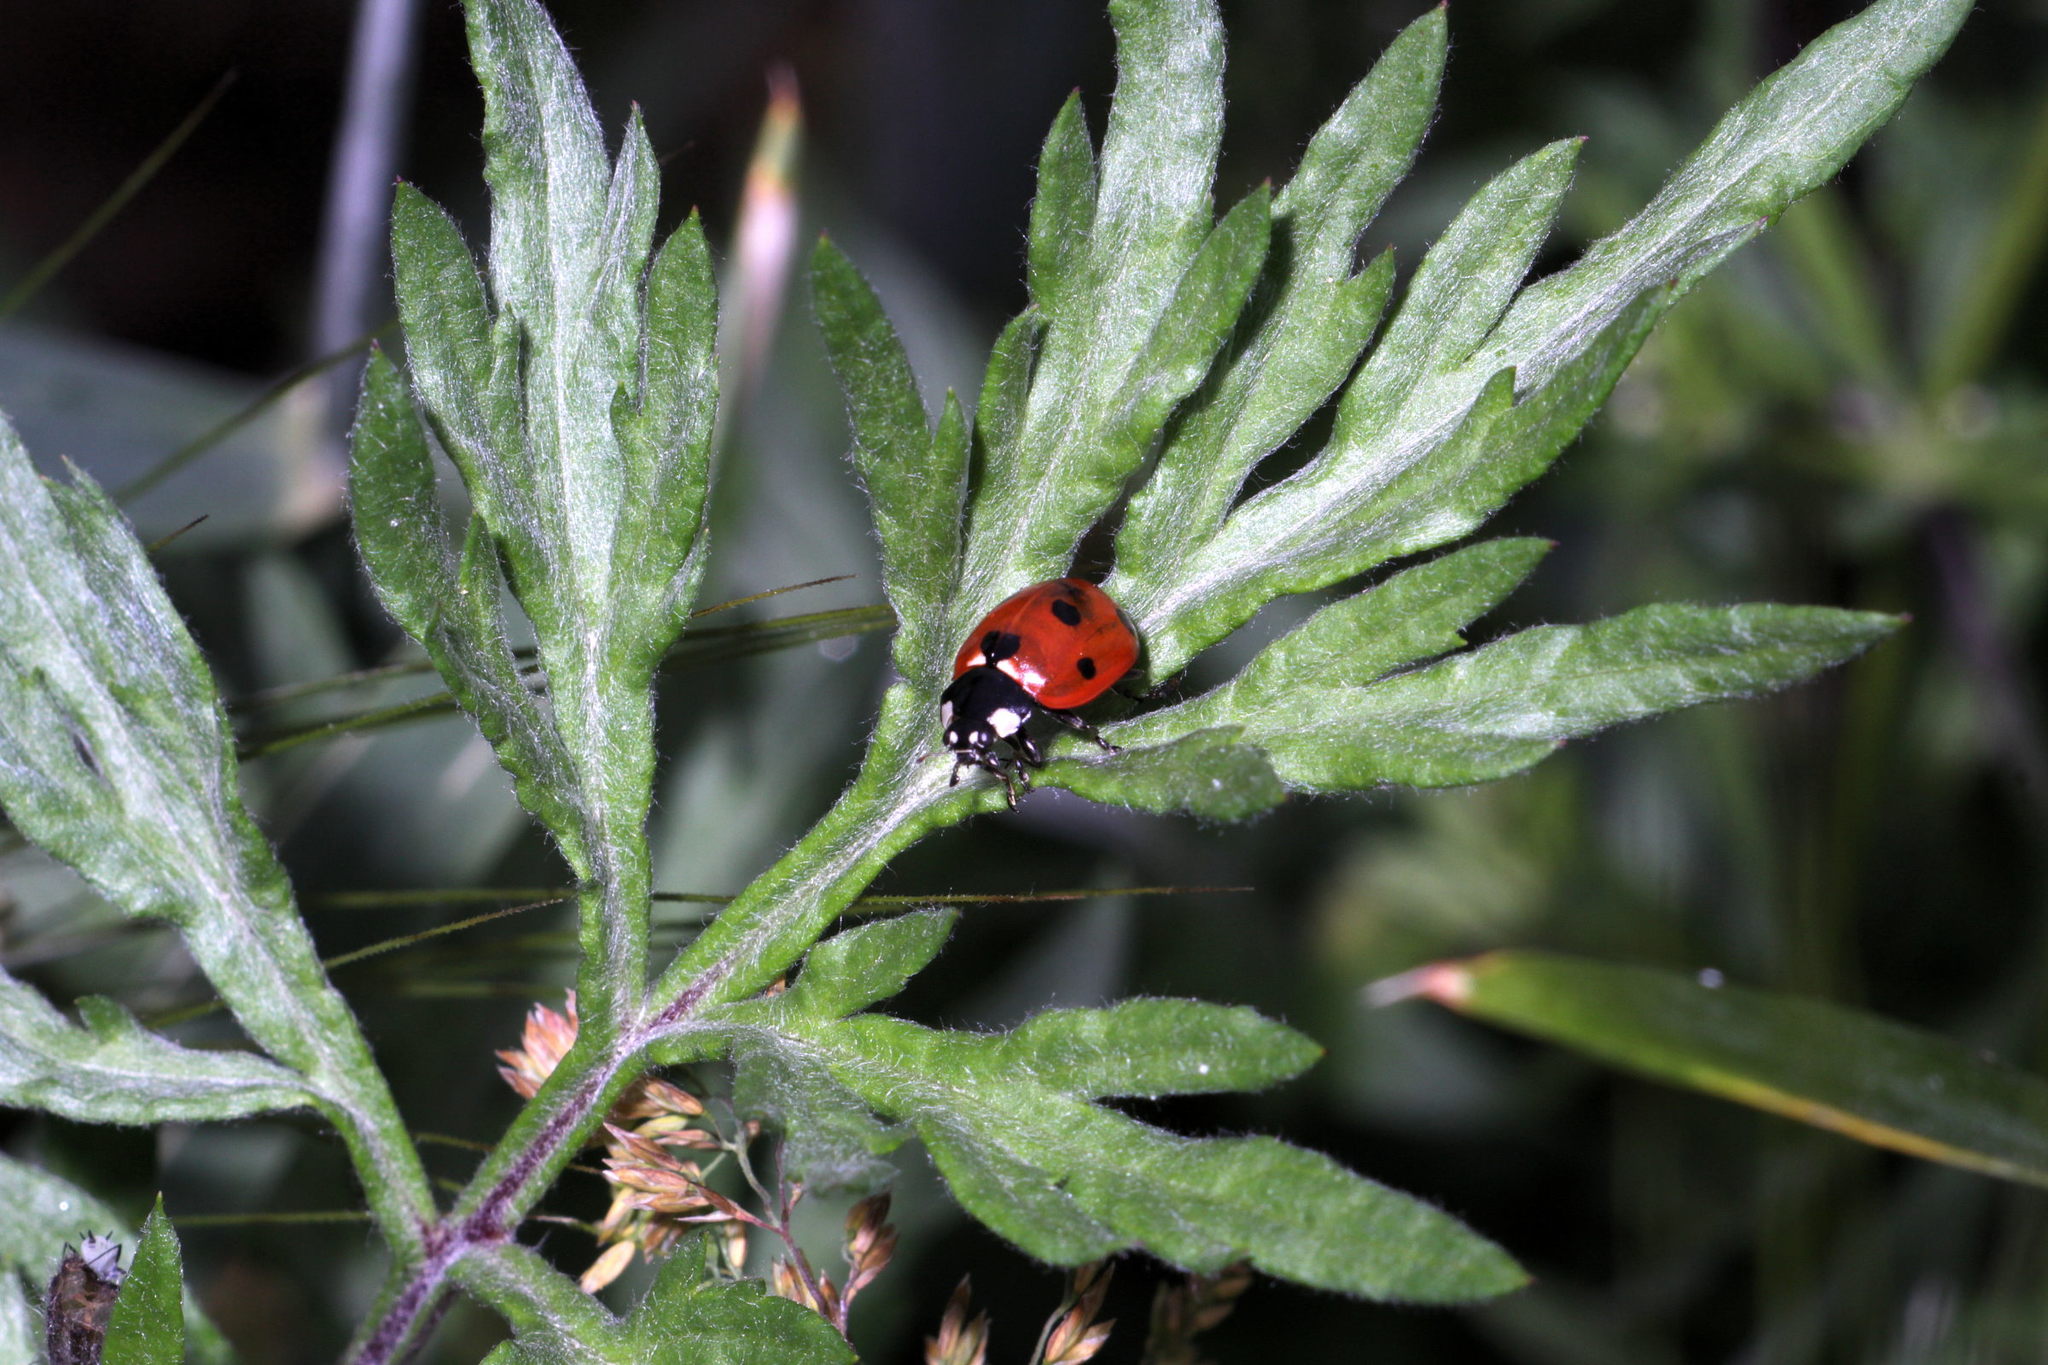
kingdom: Animalia
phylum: Arthropoda
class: Insecta
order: Coleoptera
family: Coccinellidae
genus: Coccinella
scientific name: Coccinella septempunctata
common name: Sevenspotted lady beetle
